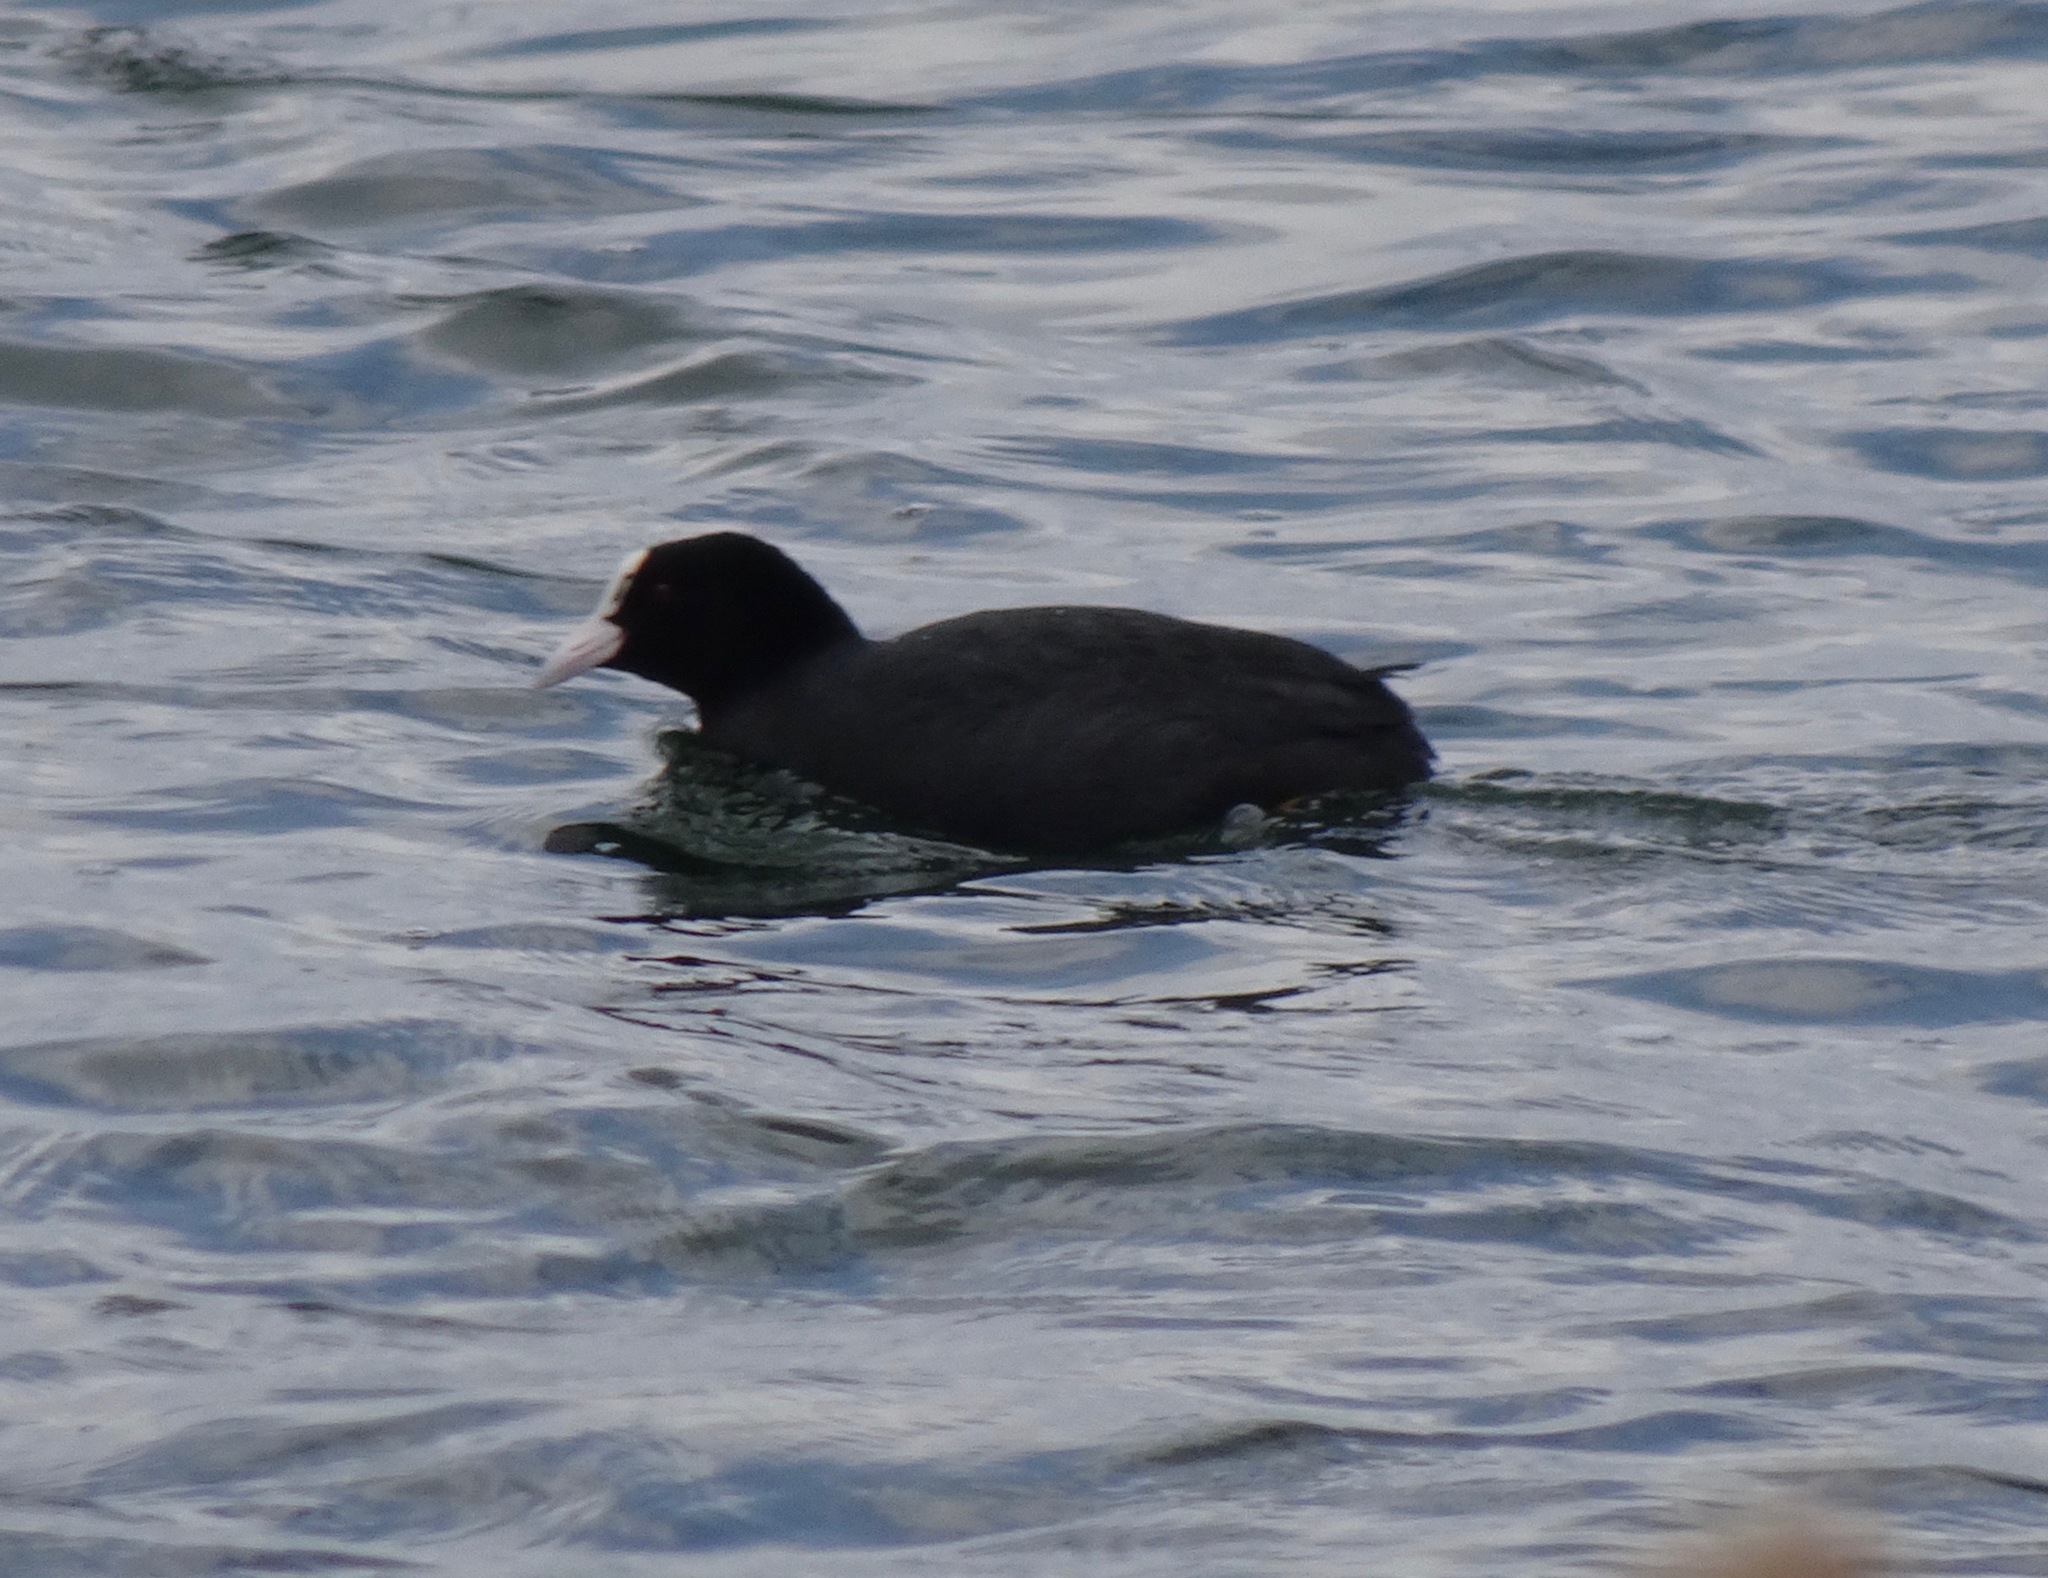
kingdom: Animalia
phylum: Chordata
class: Aves
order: Gruiformes
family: Rallidae
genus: Fulica
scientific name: Fulica atra
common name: Eurasian coot
